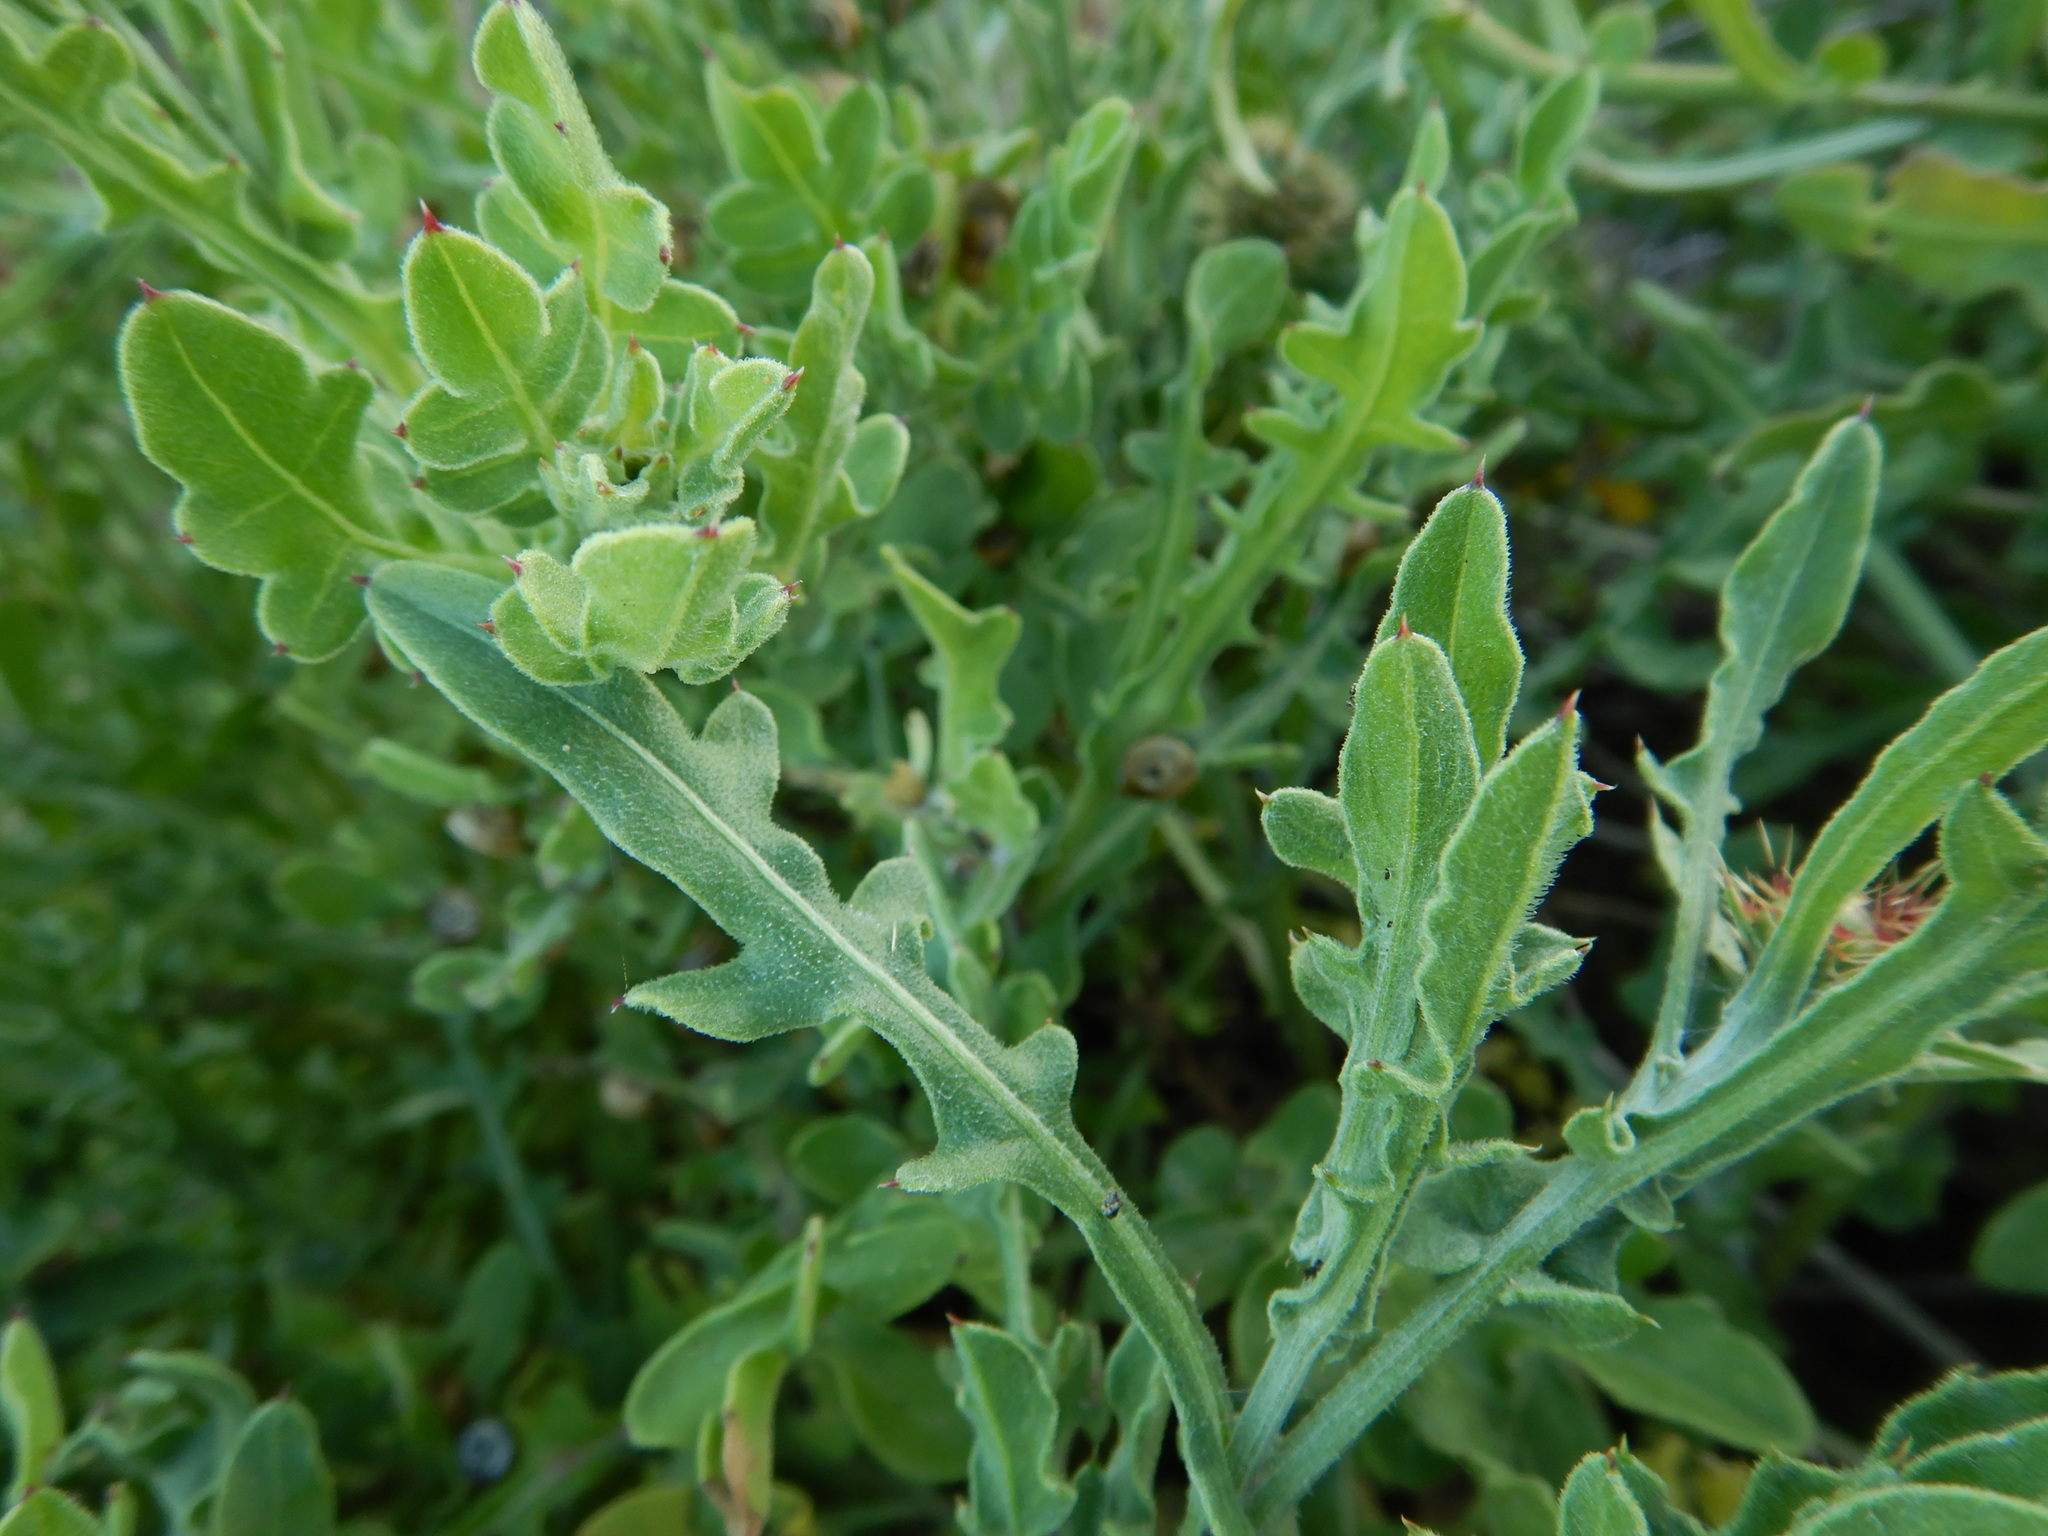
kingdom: Plantae
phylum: Tracheophyta
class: Magnoliopsida
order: Asterales
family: Asteraceae
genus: Centaurea
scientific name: Centaurea sphaerocephala
